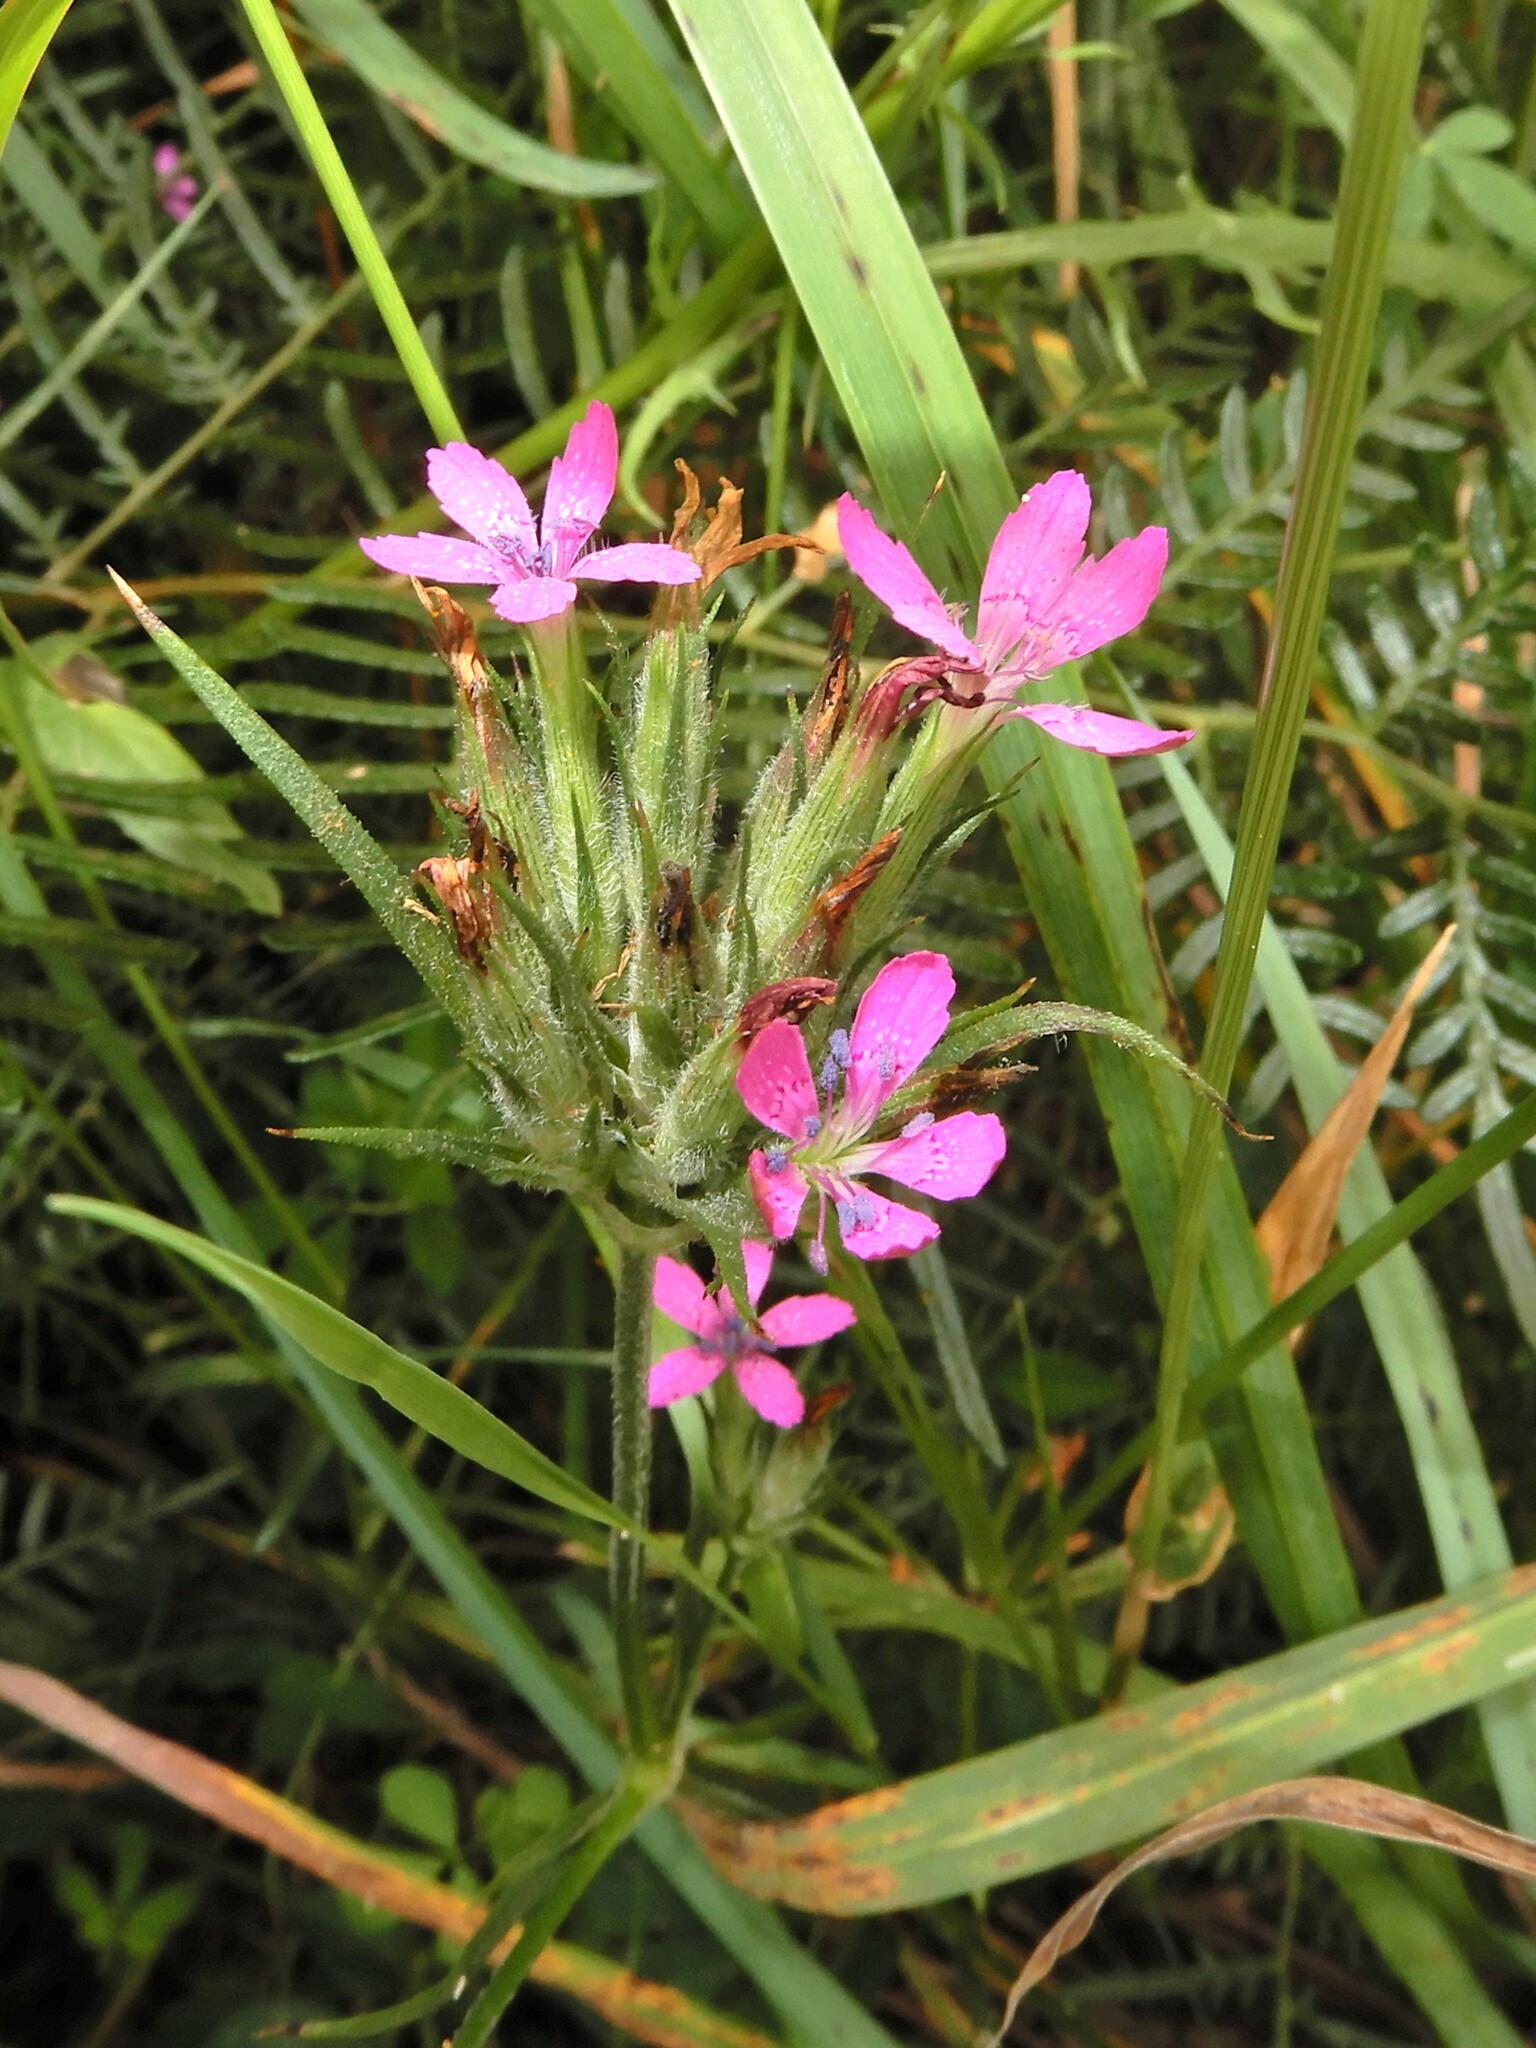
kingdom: Plantae
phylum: Tracheophyta
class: Magnoliopsida
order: Caryophyllales
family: Caryophyllaceae
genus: Dianthus
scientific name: Dianthus armeria
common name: Deptford pink
